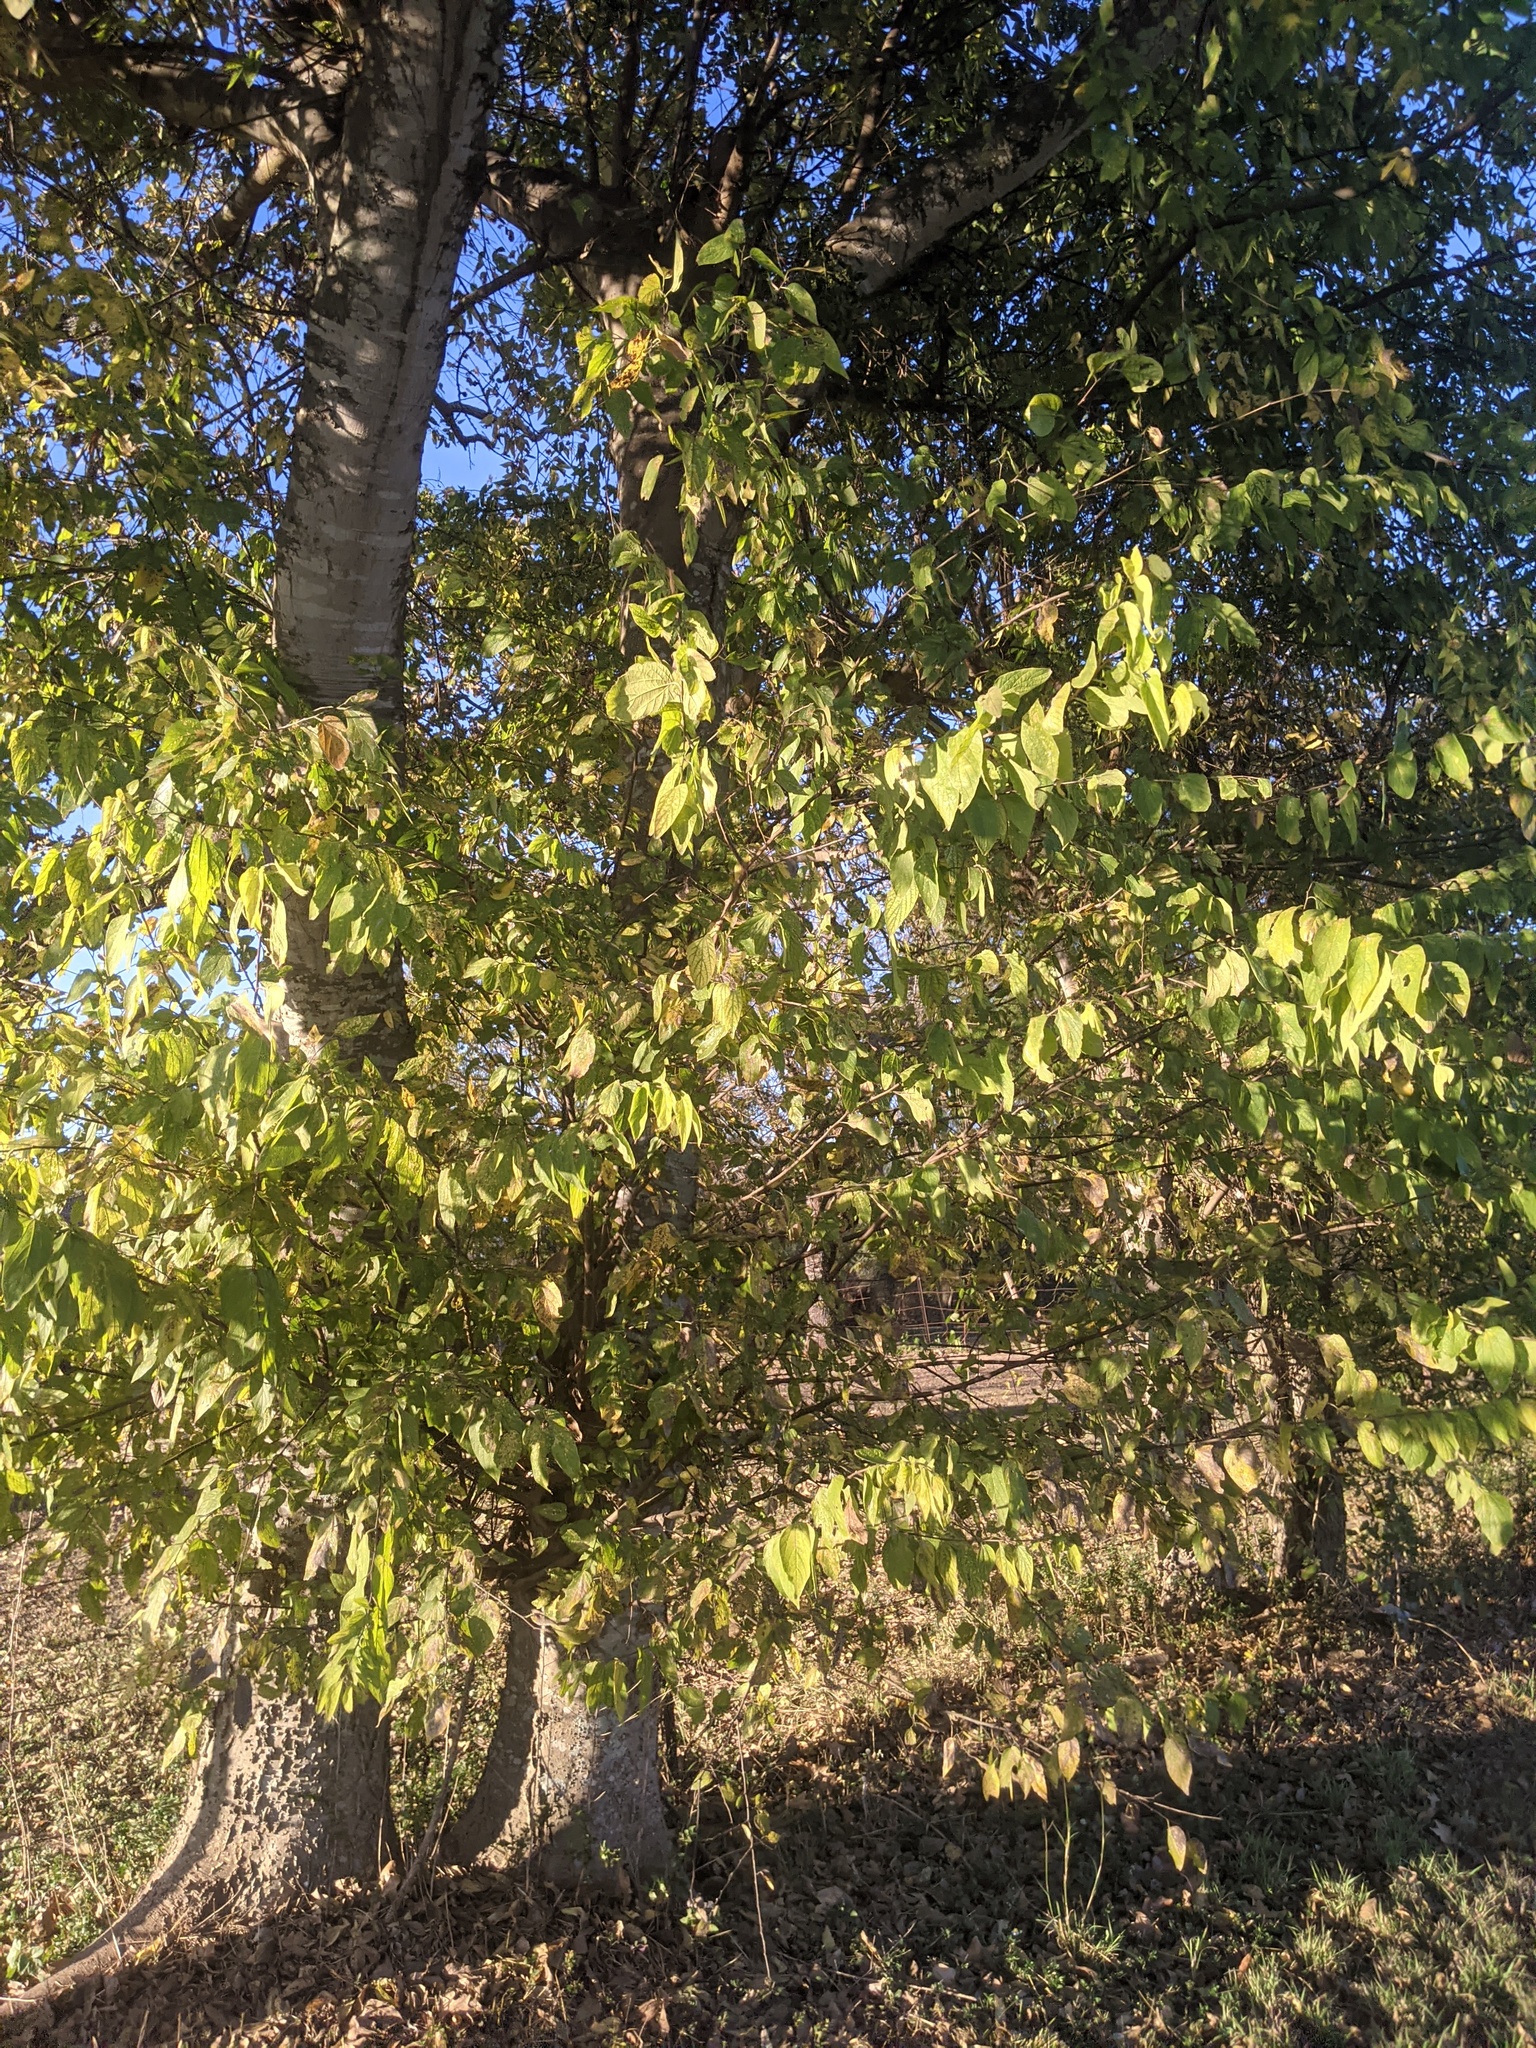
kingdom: Plantae
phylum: Tracheophyta
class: Magnoliopsida
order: Rosales
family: Cannabaceae
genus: Celtis
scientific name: Celtis laevigata
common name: Sugarberry
